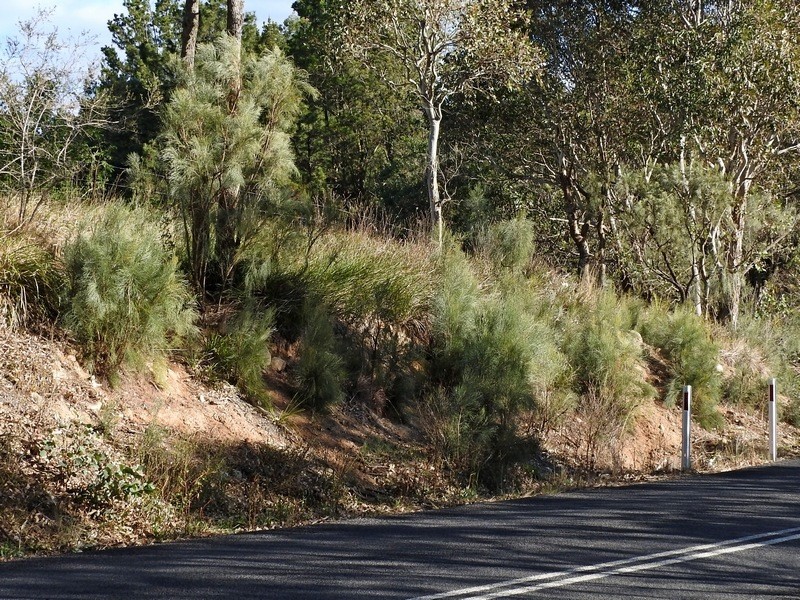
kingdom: Plantae
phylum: Tracheophyta
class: Magnoliopsida
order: Fabales
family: Fabaceae
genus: Jacksonia
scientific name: Jacksonia scoparia
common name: Dogwood
